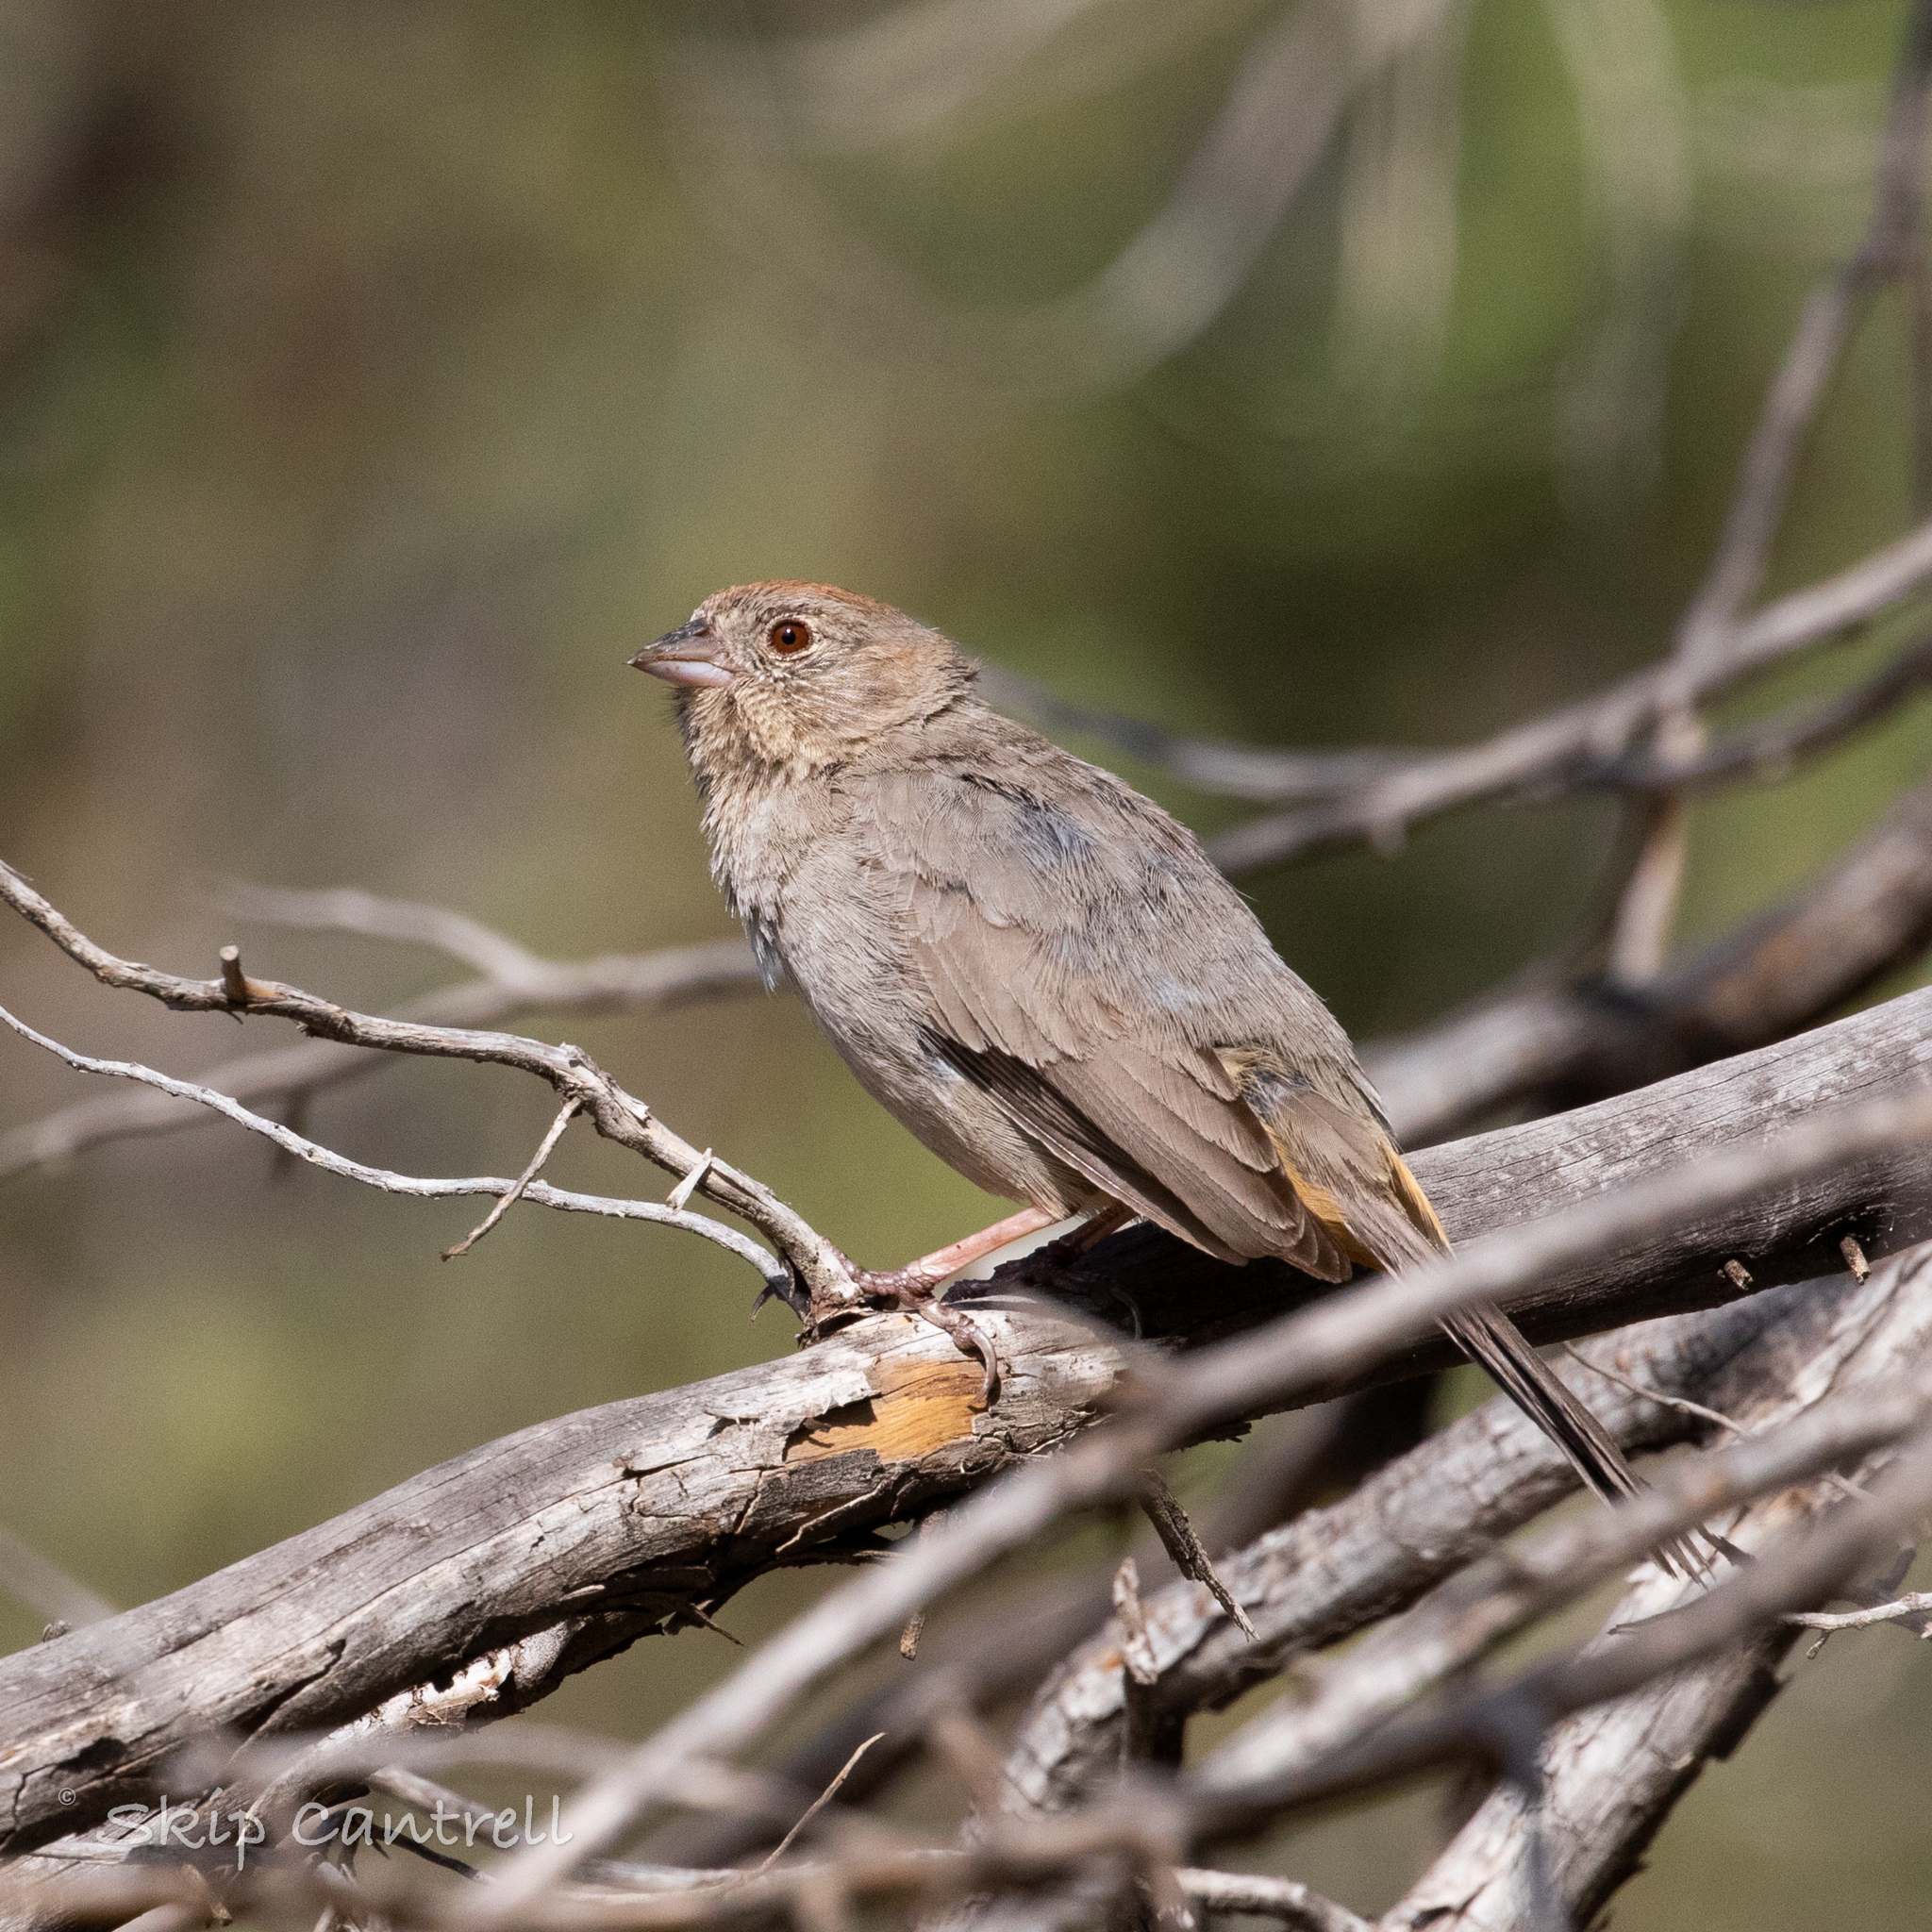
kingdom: Animalia
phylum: Chordata
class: Aves
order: Passeriformes
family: Passerellidae
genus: Melozone
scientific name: Melozone fusca
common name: Canyon towhee
